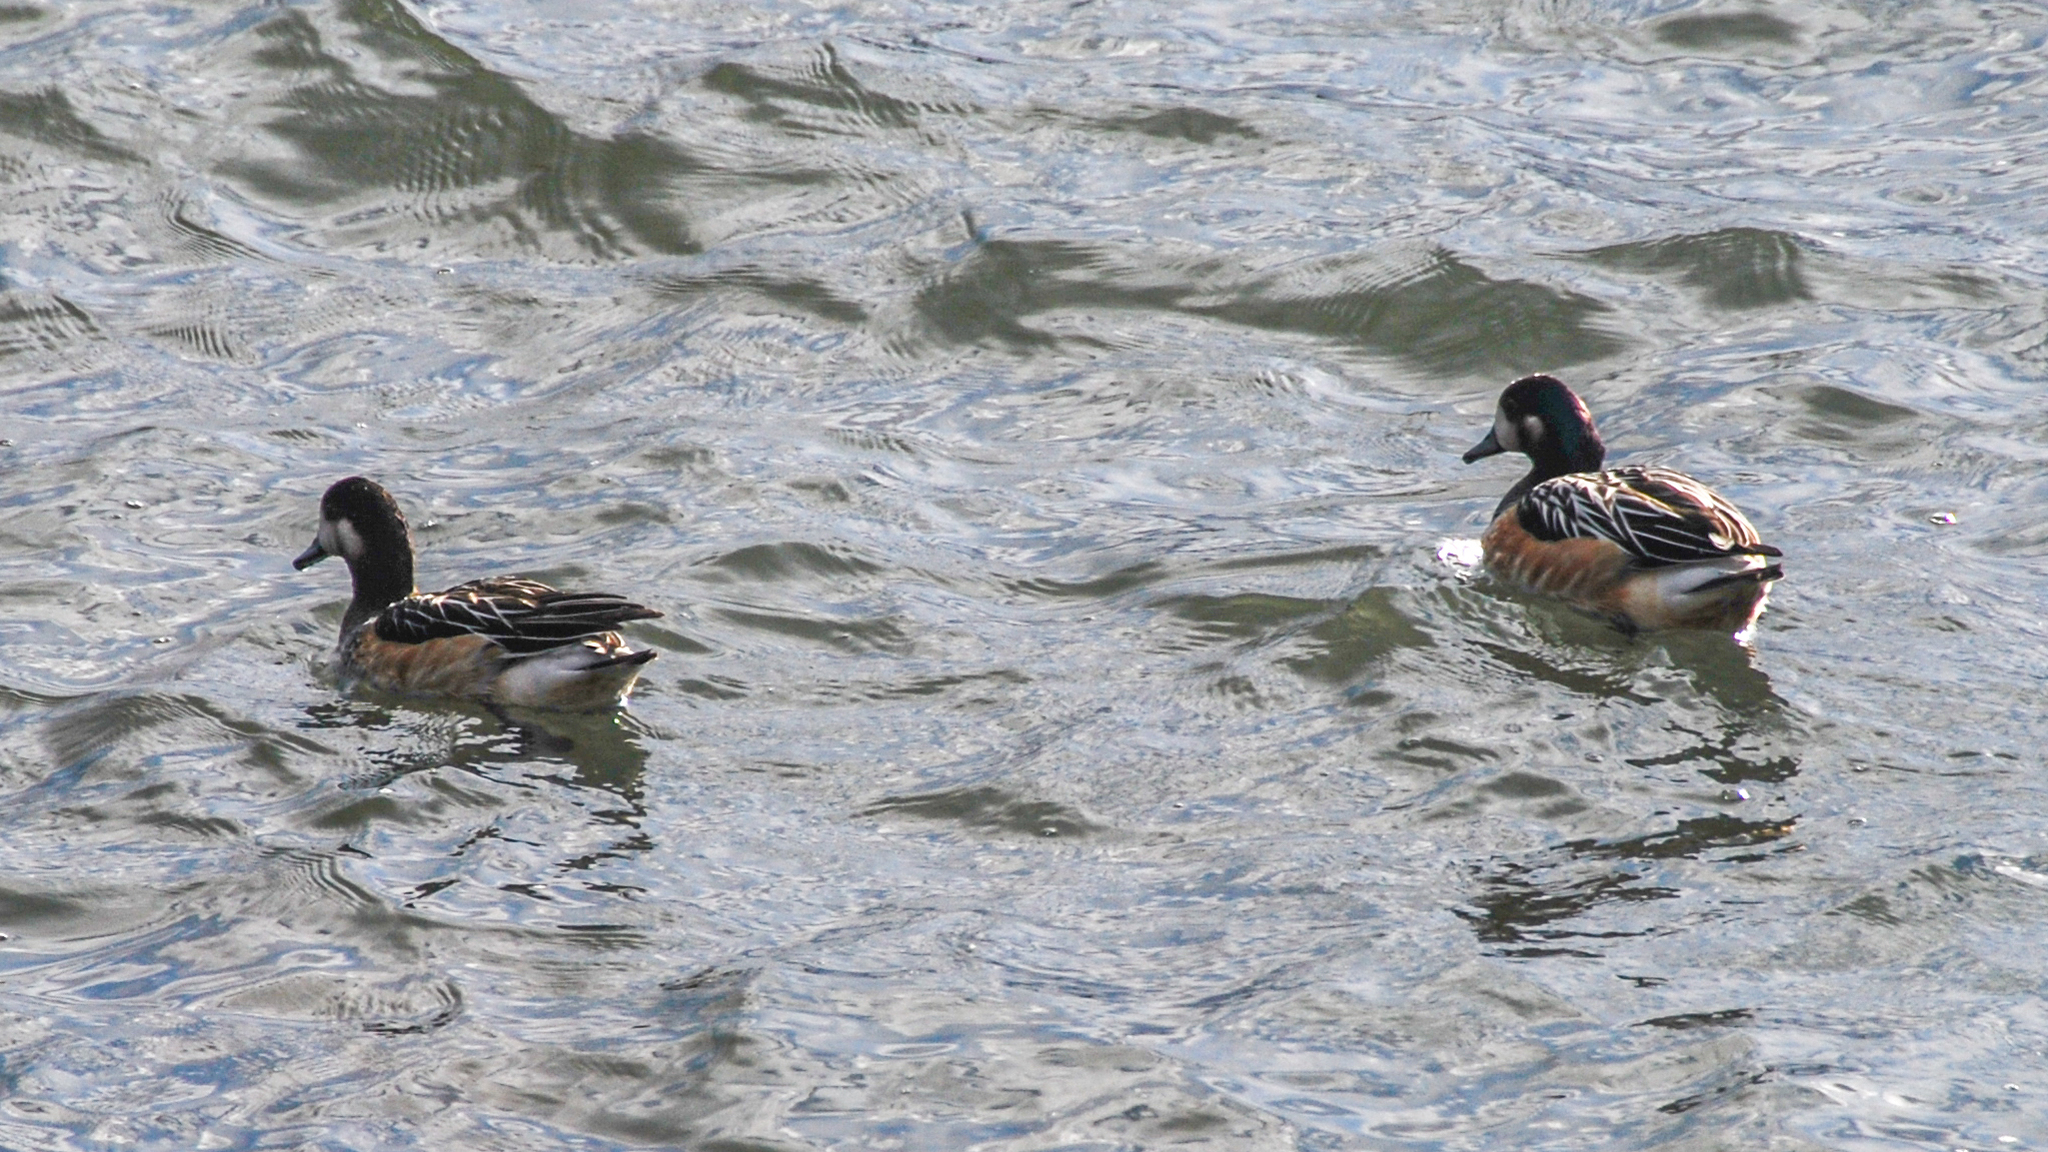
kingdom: Animalia
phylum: Chordata
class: Aves
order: Anseriformes
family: Anatidae
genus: Mareca
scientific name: Mareca sibilatrix
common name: Chiloe wigeon
